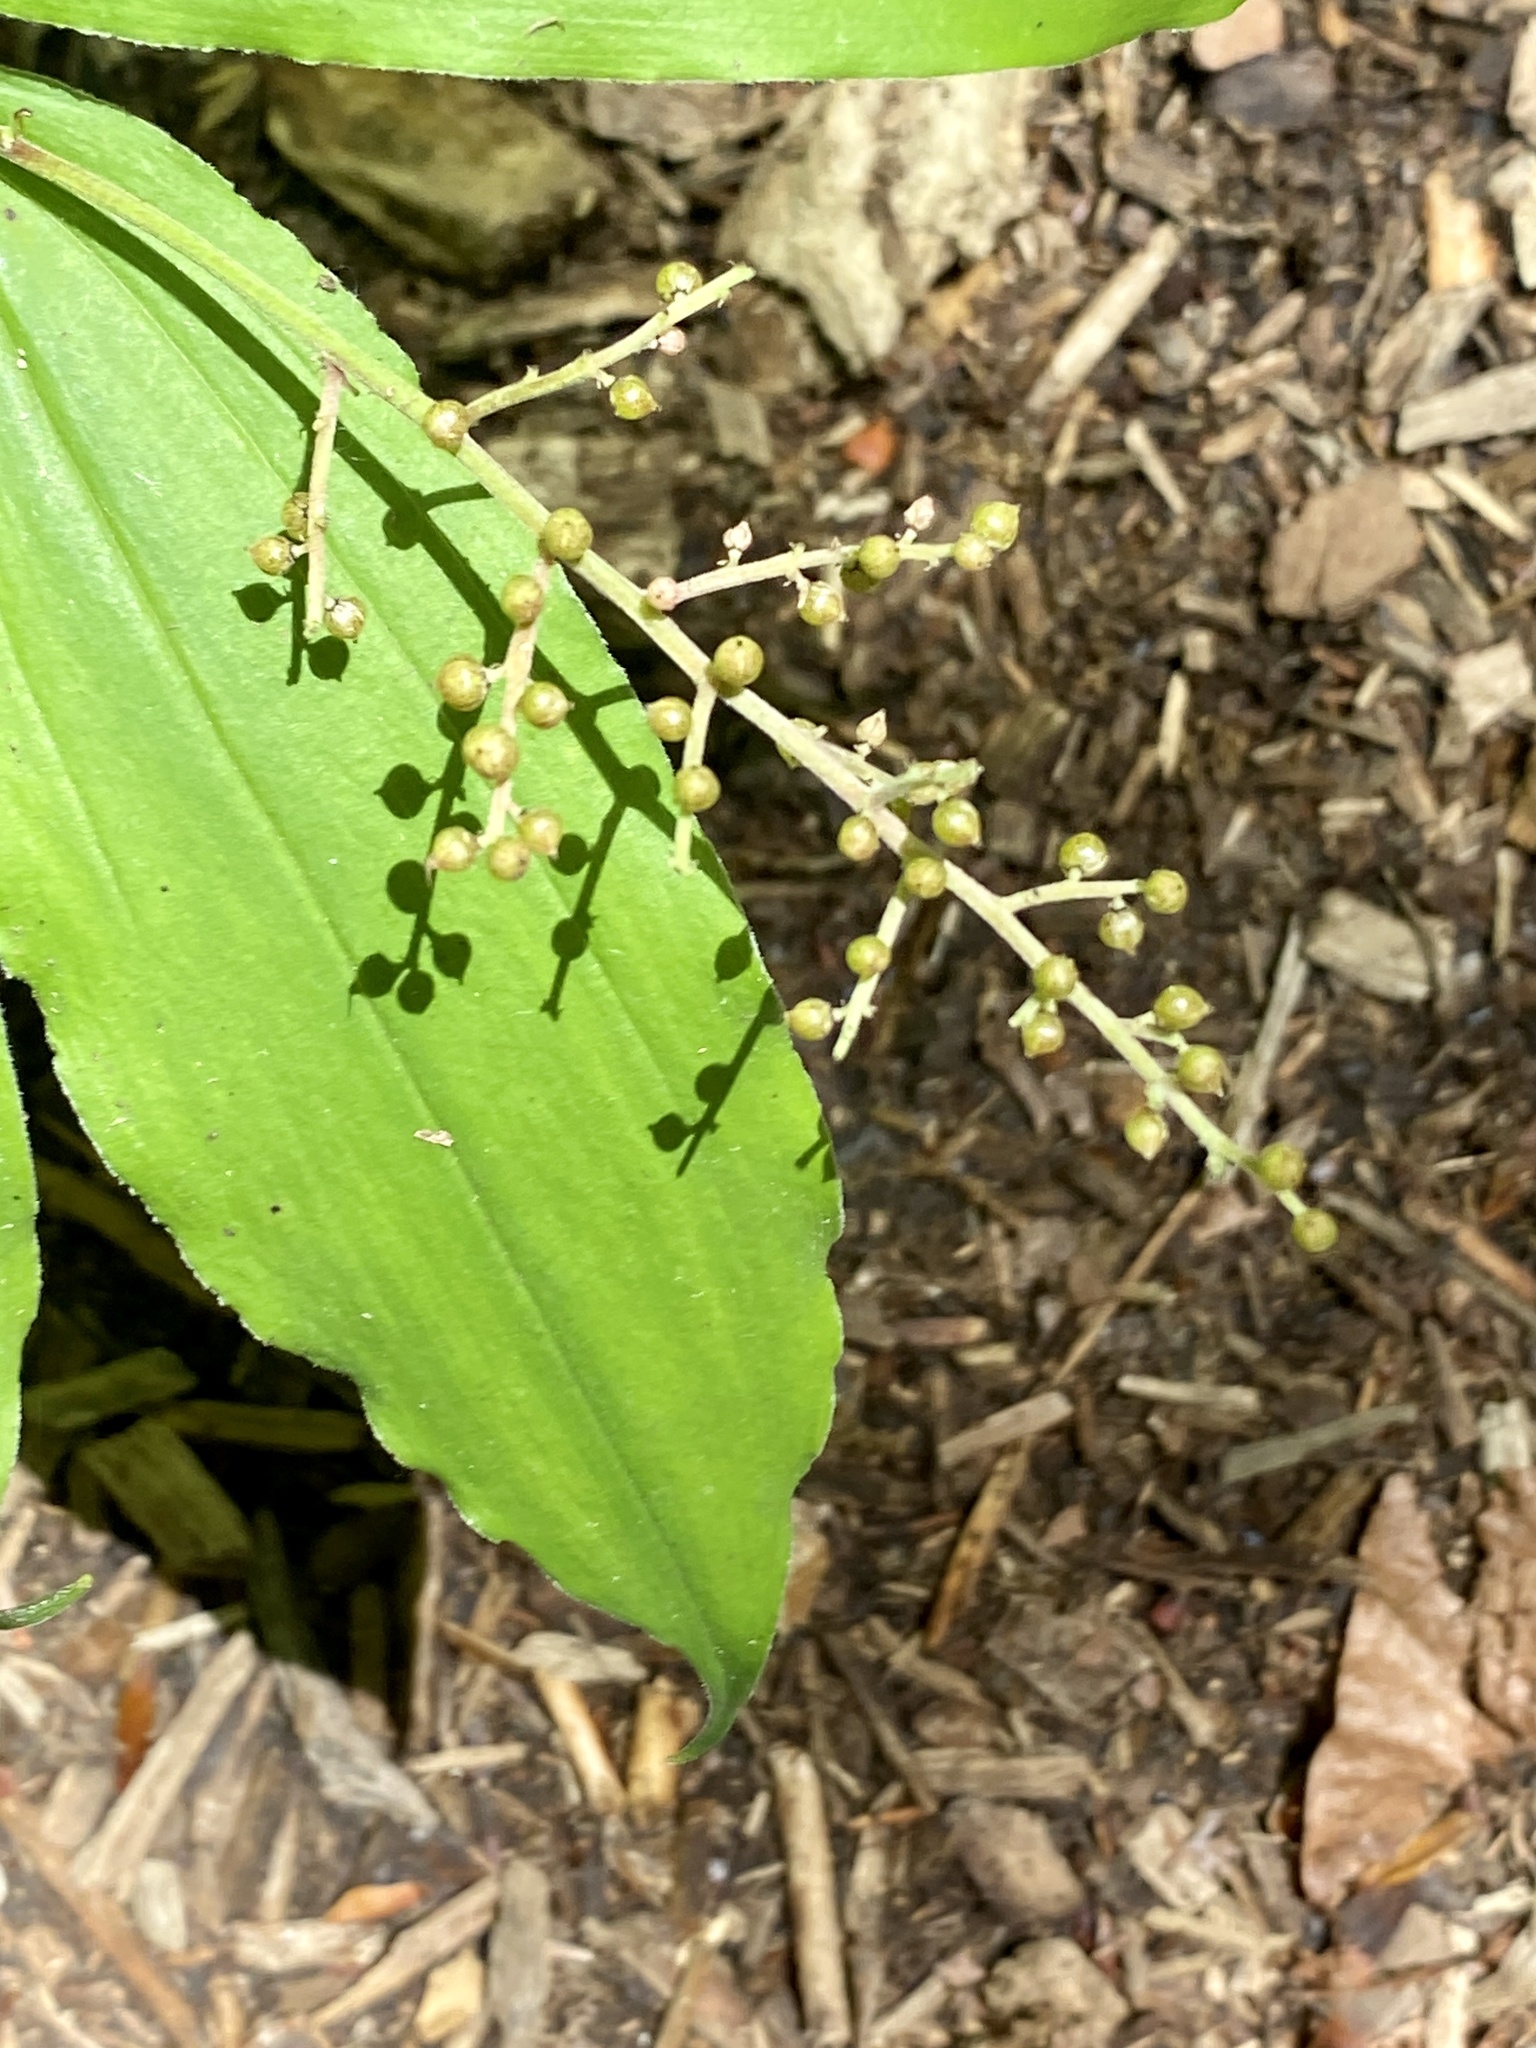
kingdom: Plantae
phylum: Tracheophyta
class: Liliopsida
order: Asparagales
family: Asparagaceae
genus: Maianthemum
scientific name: Maianthemum racemosum
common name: False spikenard
